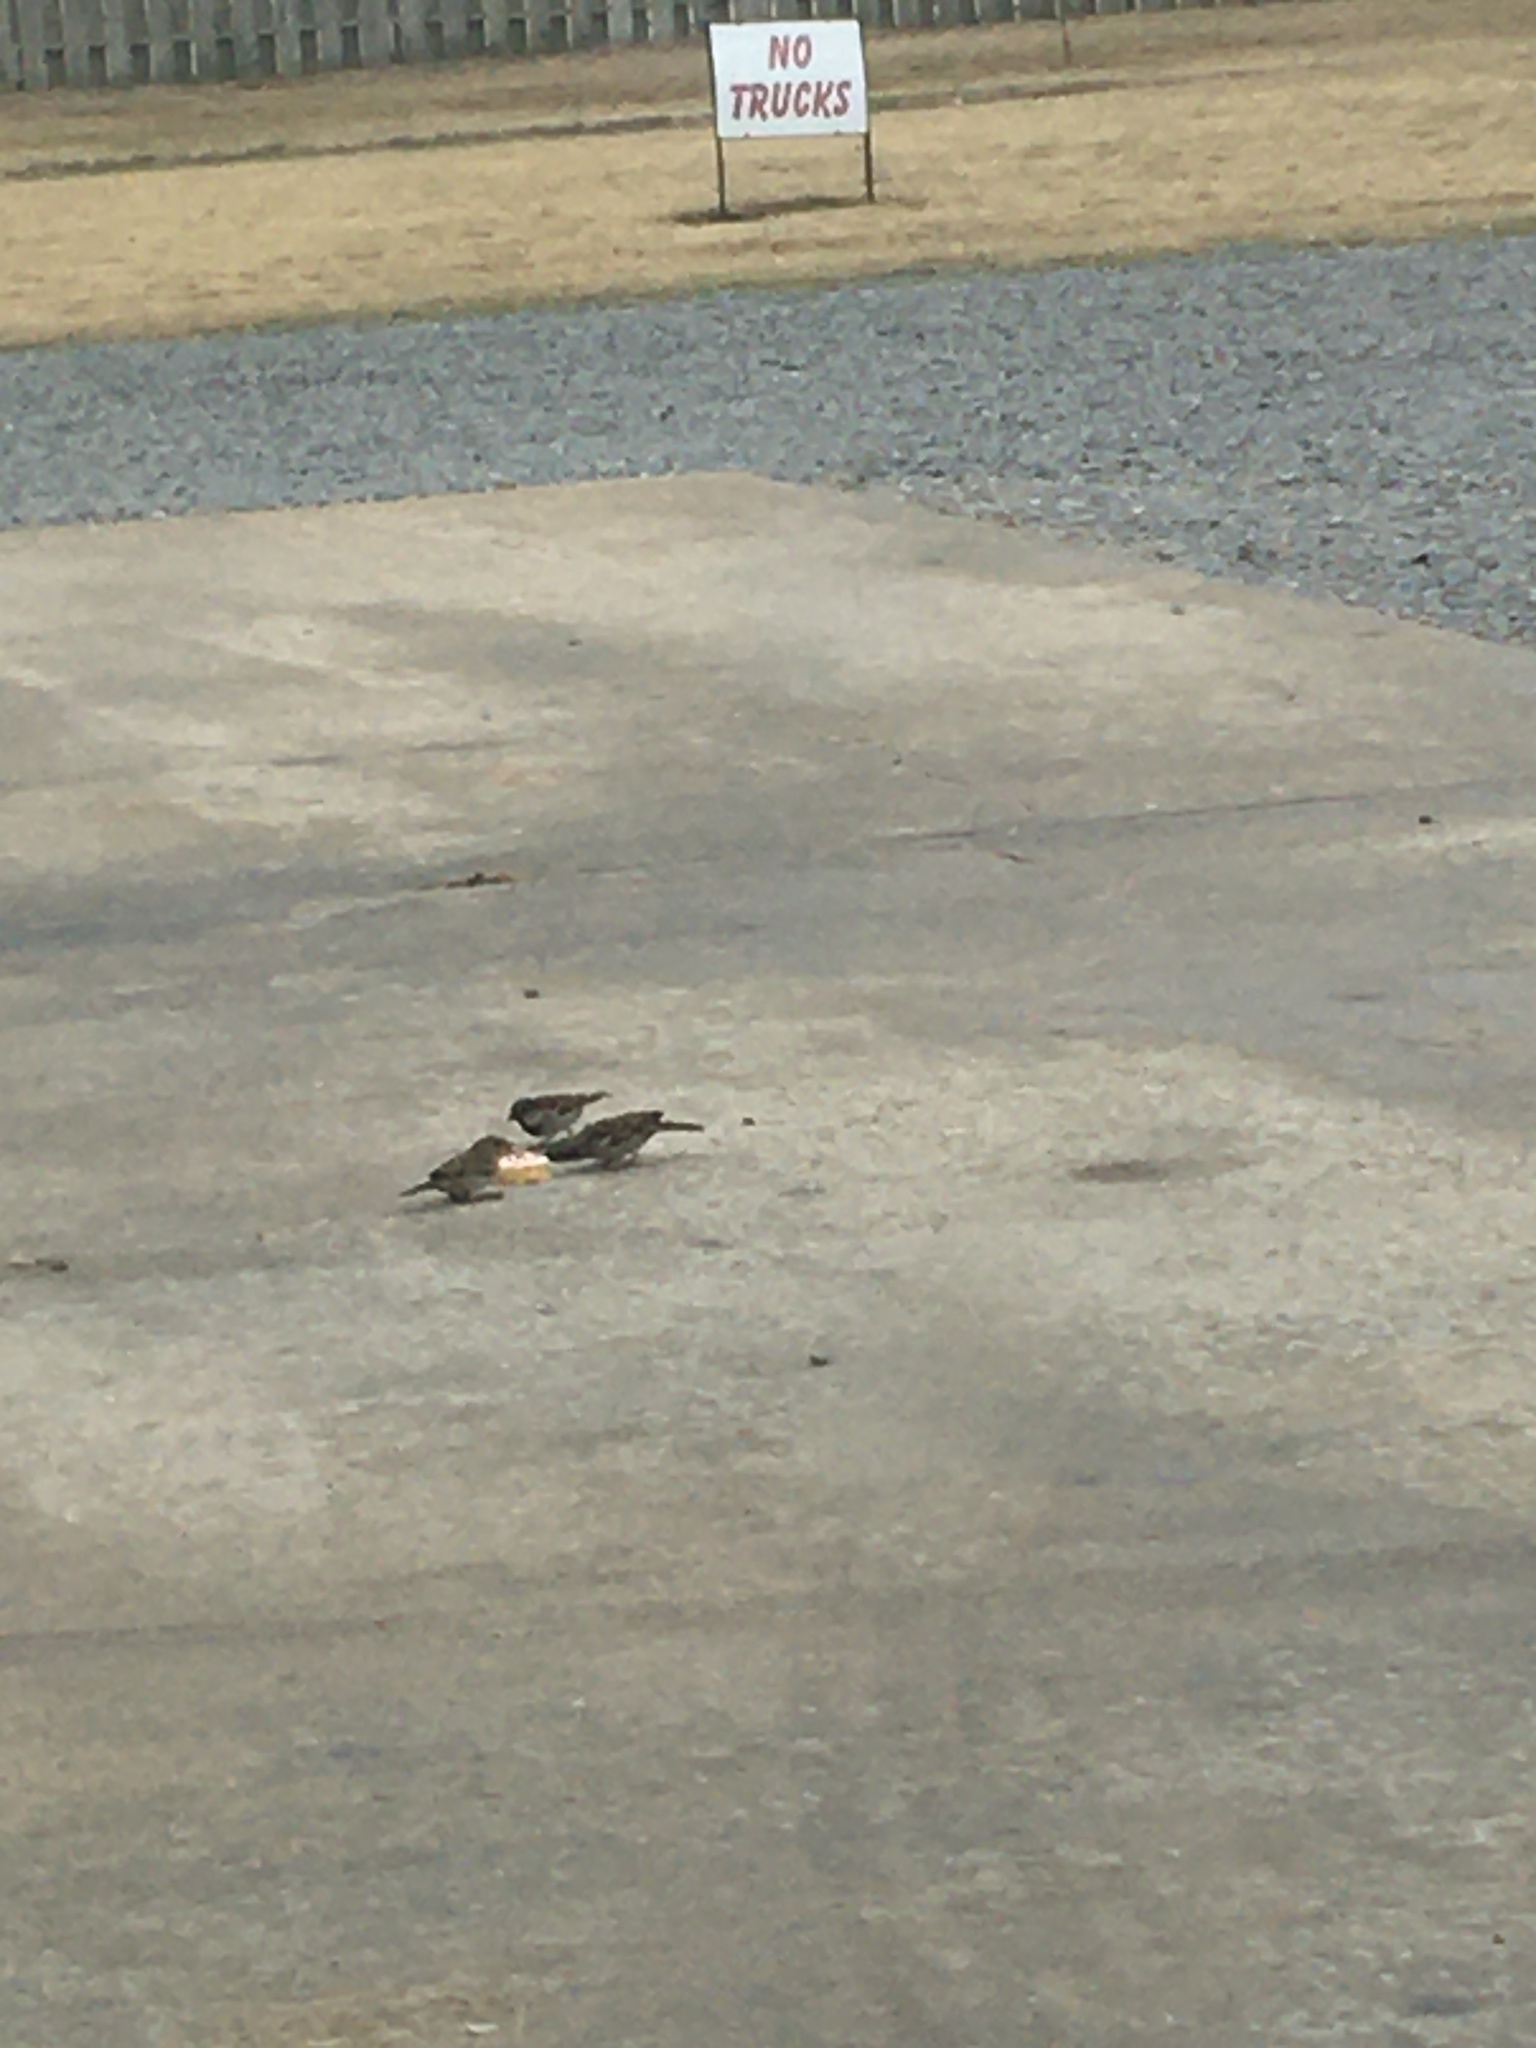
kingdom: Animalia
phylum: Chordata
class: Aves
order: Passeriformes
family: Passeridae
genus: Passer
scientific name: Passer domesticus
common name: House sparrow
